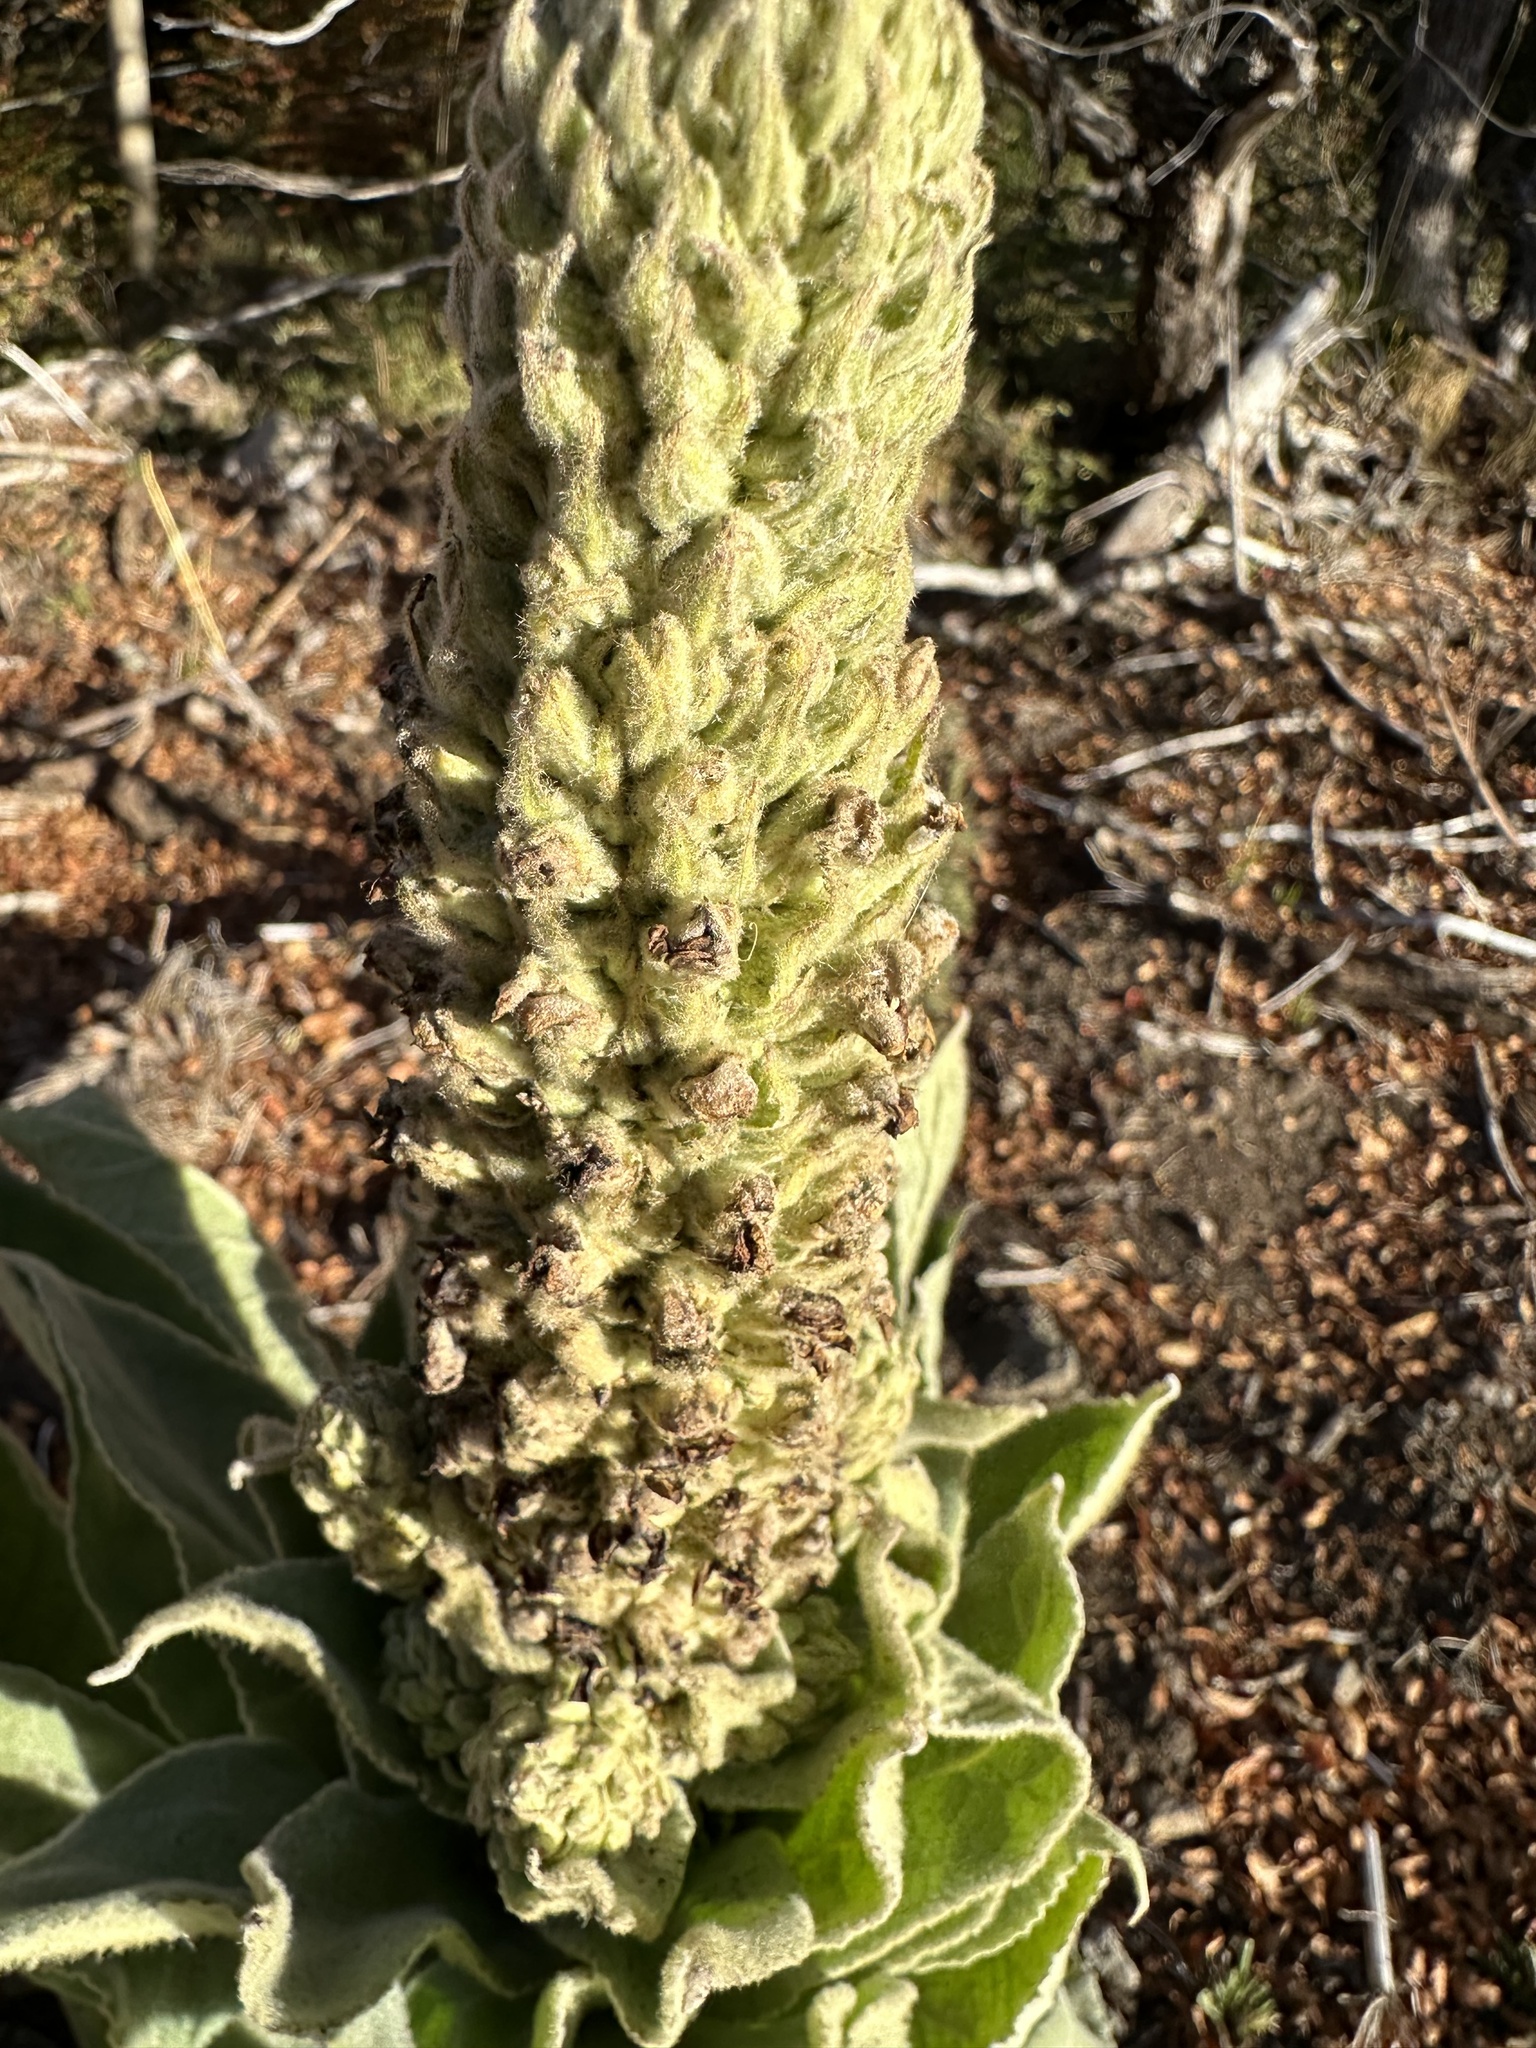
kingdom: Plantae
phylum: Tracheophyta
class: Magnoliopsida
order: Lamiales
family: Scrophulariaceae
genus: Verbascum
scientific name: Verbascum thapsus
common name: Common mullein
